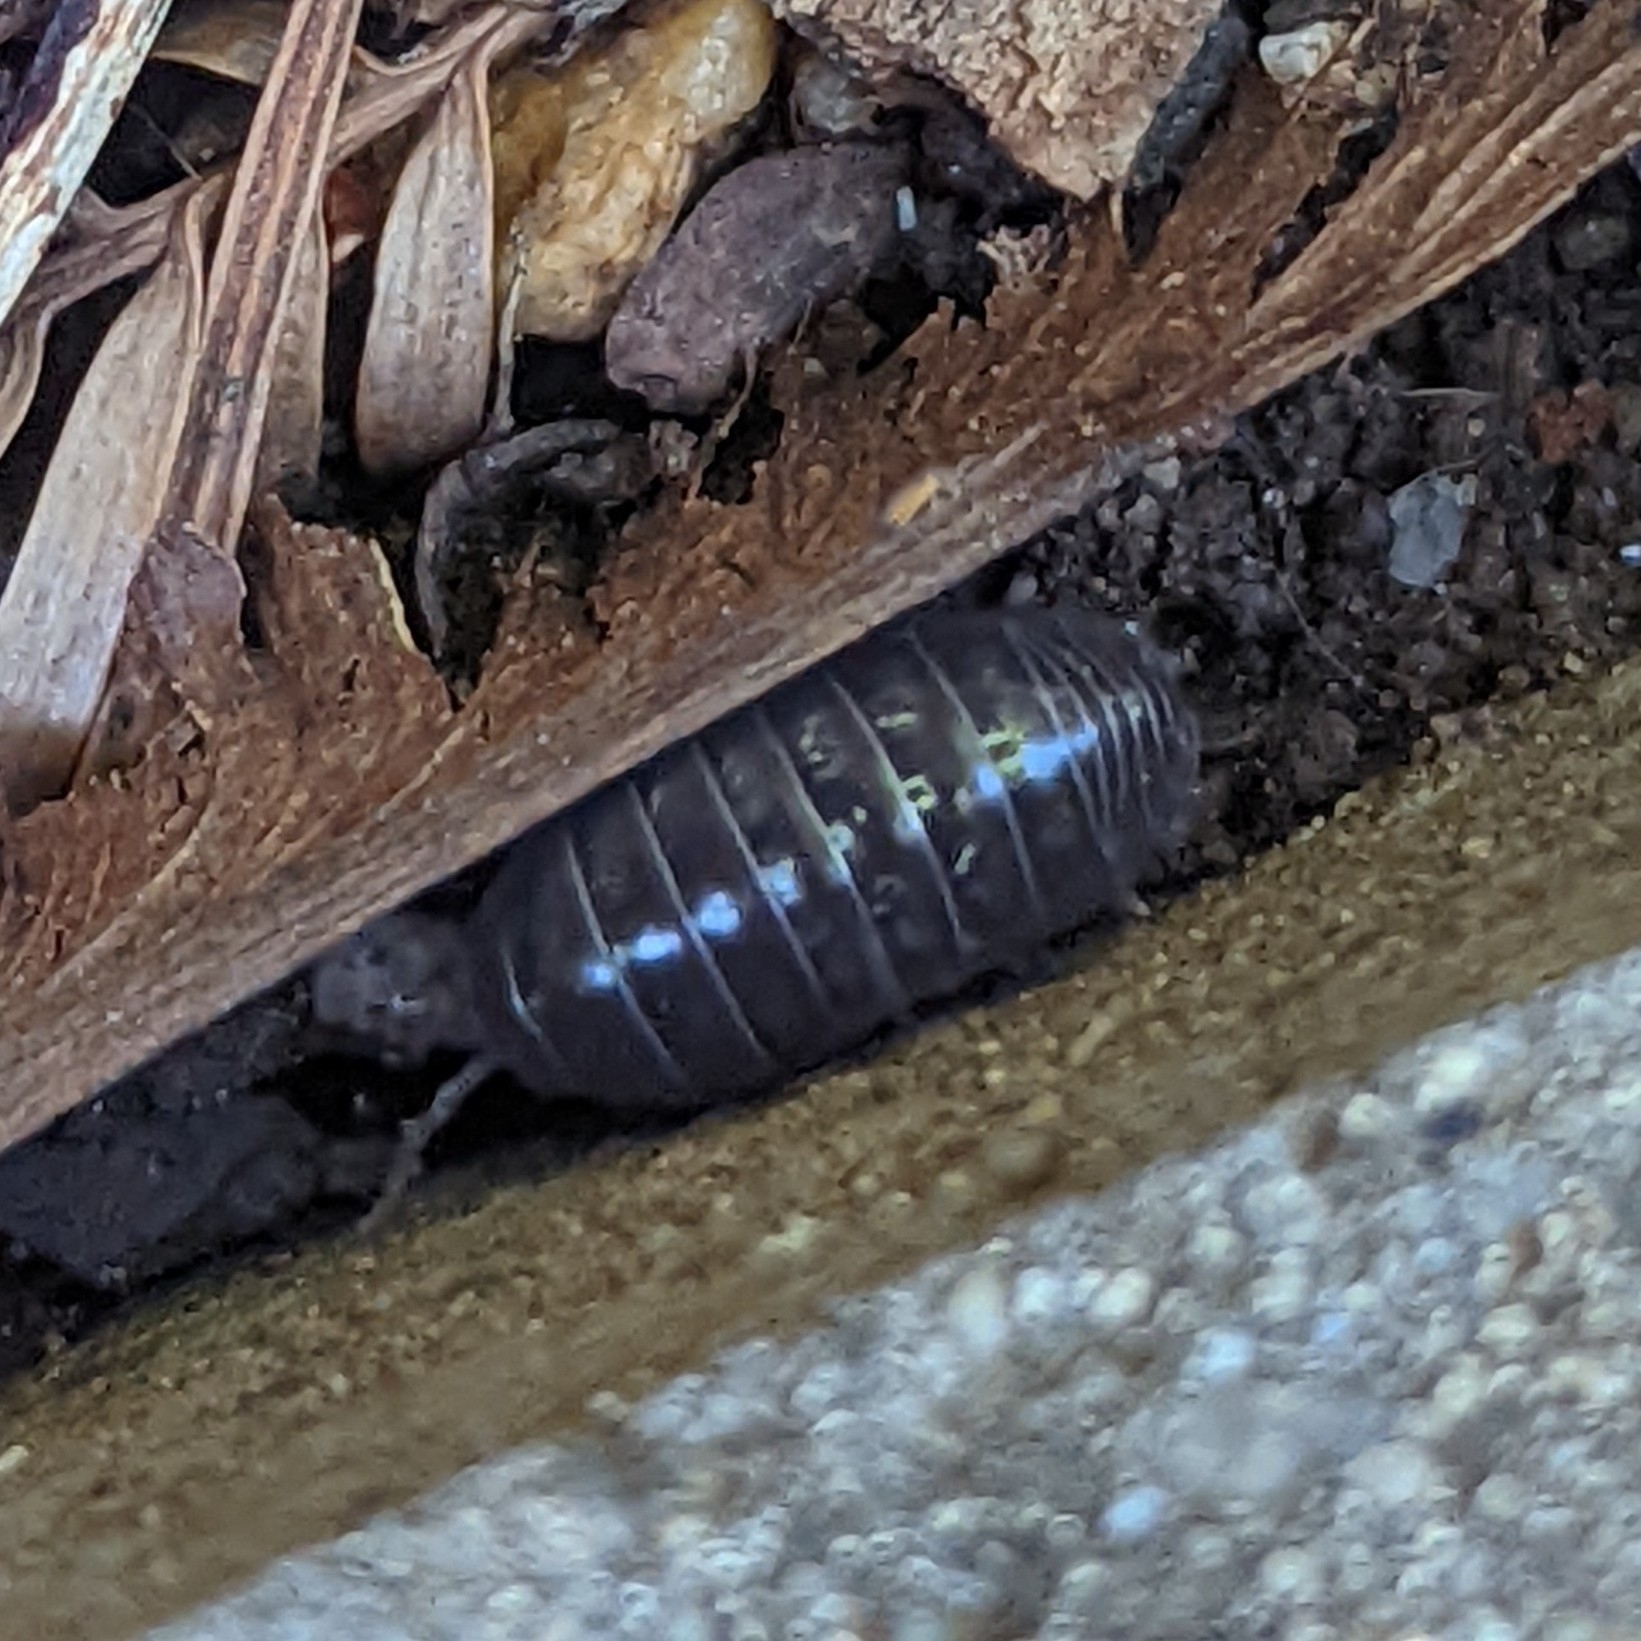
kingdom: Animalia
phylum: Arthropoda
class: Malacostraca
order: Isopoda
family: Armadillidiidae
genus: Armadillidium
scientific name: Armadillidium vulgare
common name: Common pill woodlouse
